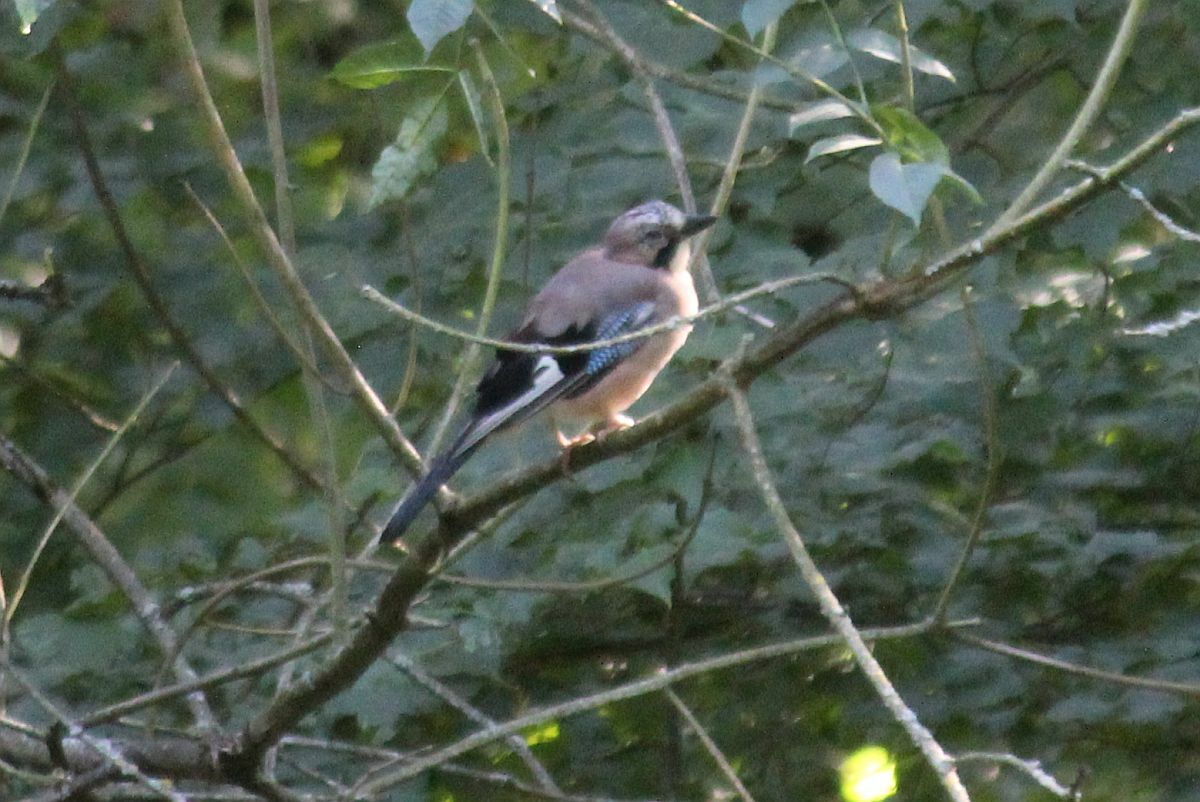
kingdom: Animalia
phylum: Chordata
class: Aves
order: Passeriformes
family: Corvidae
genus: Garrulus
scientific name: Garrulus glandarius
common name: Eurasian jay
